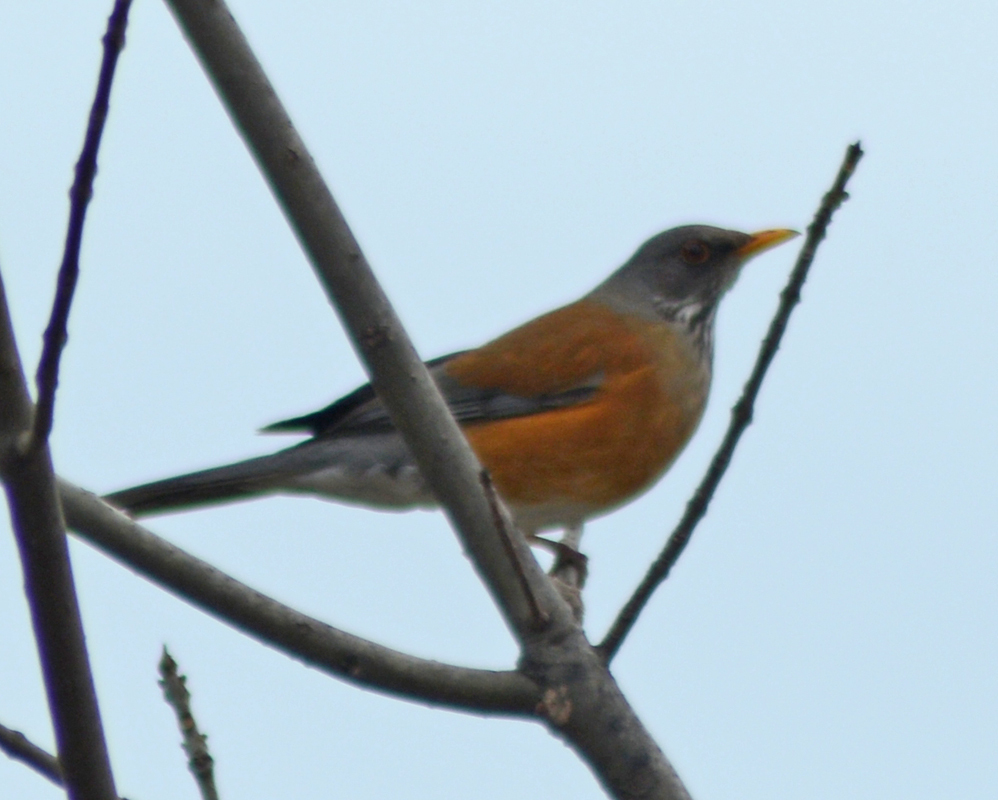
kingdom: Animalia
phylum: Chordata
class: Aves
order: Passeriformes
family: Turdidae
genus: Turdus
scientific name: Turdus rufopalliatus
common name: Rufous-backed robin
